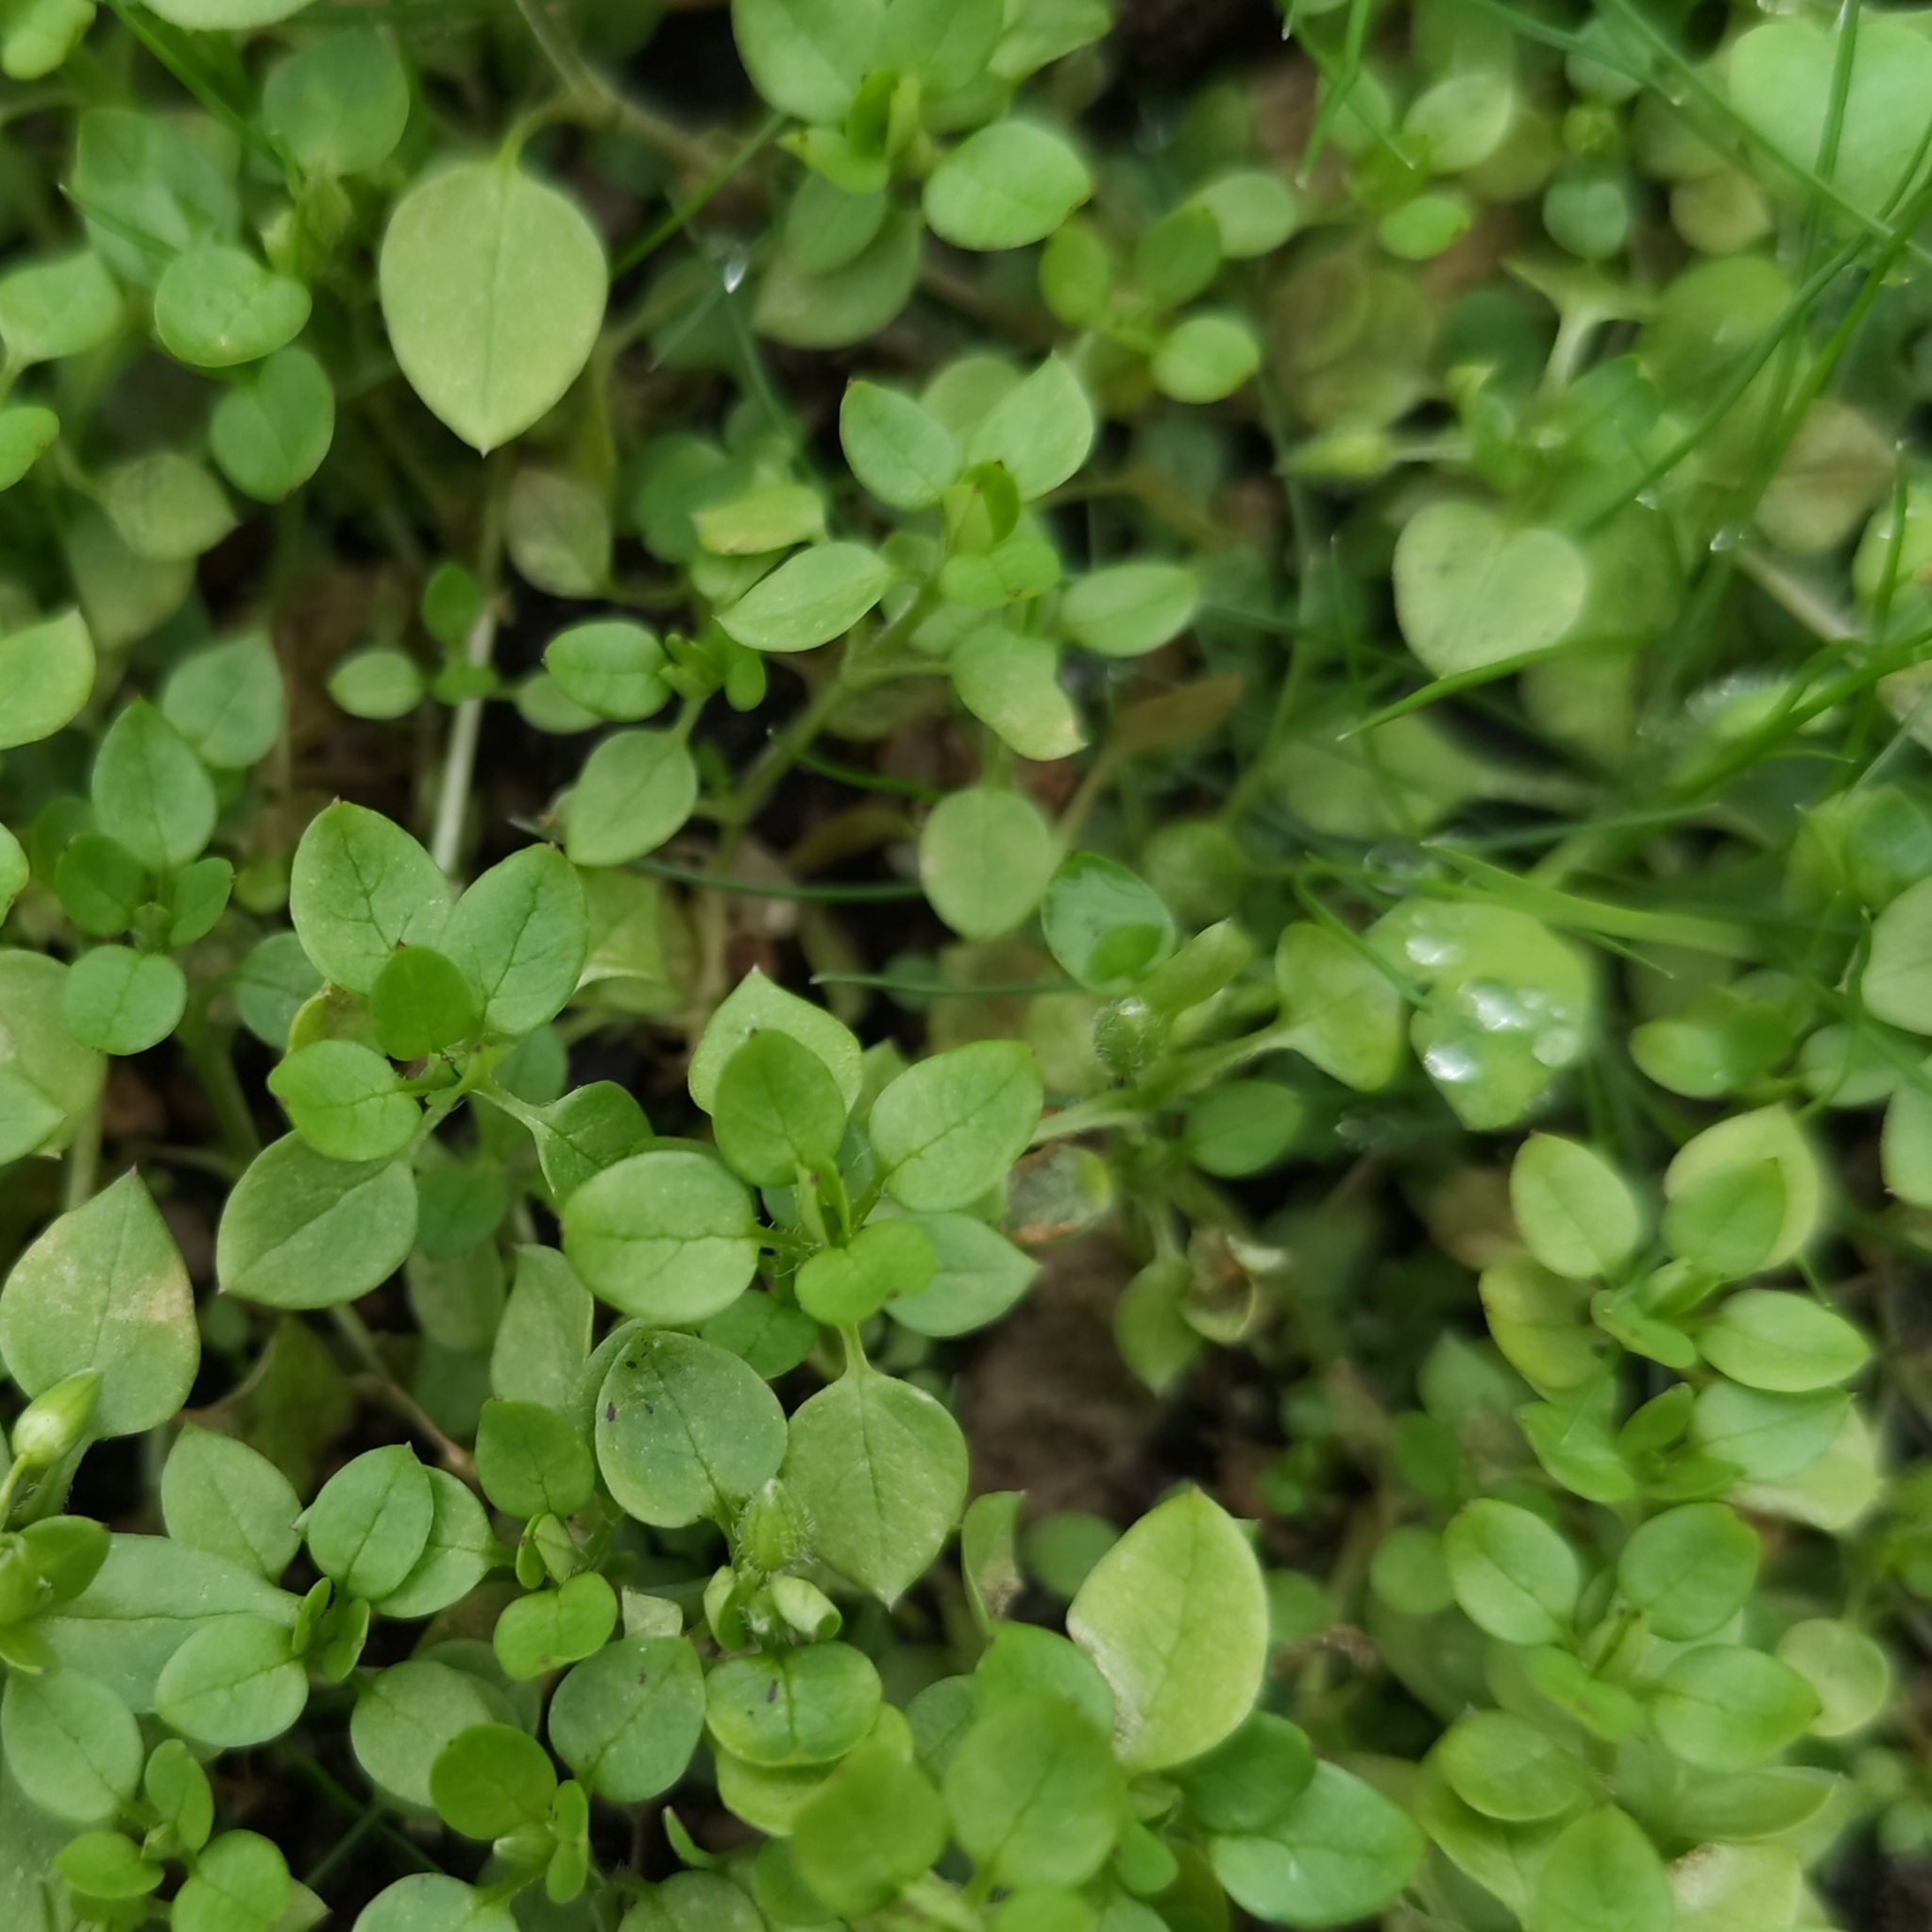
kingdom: Plantae
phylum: Tracheophyta
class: Magnoliopsida
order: Caryophyllales
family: Caryophyllaceae
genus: Stellaria
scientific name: Stellaria media
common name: Common chickweed
